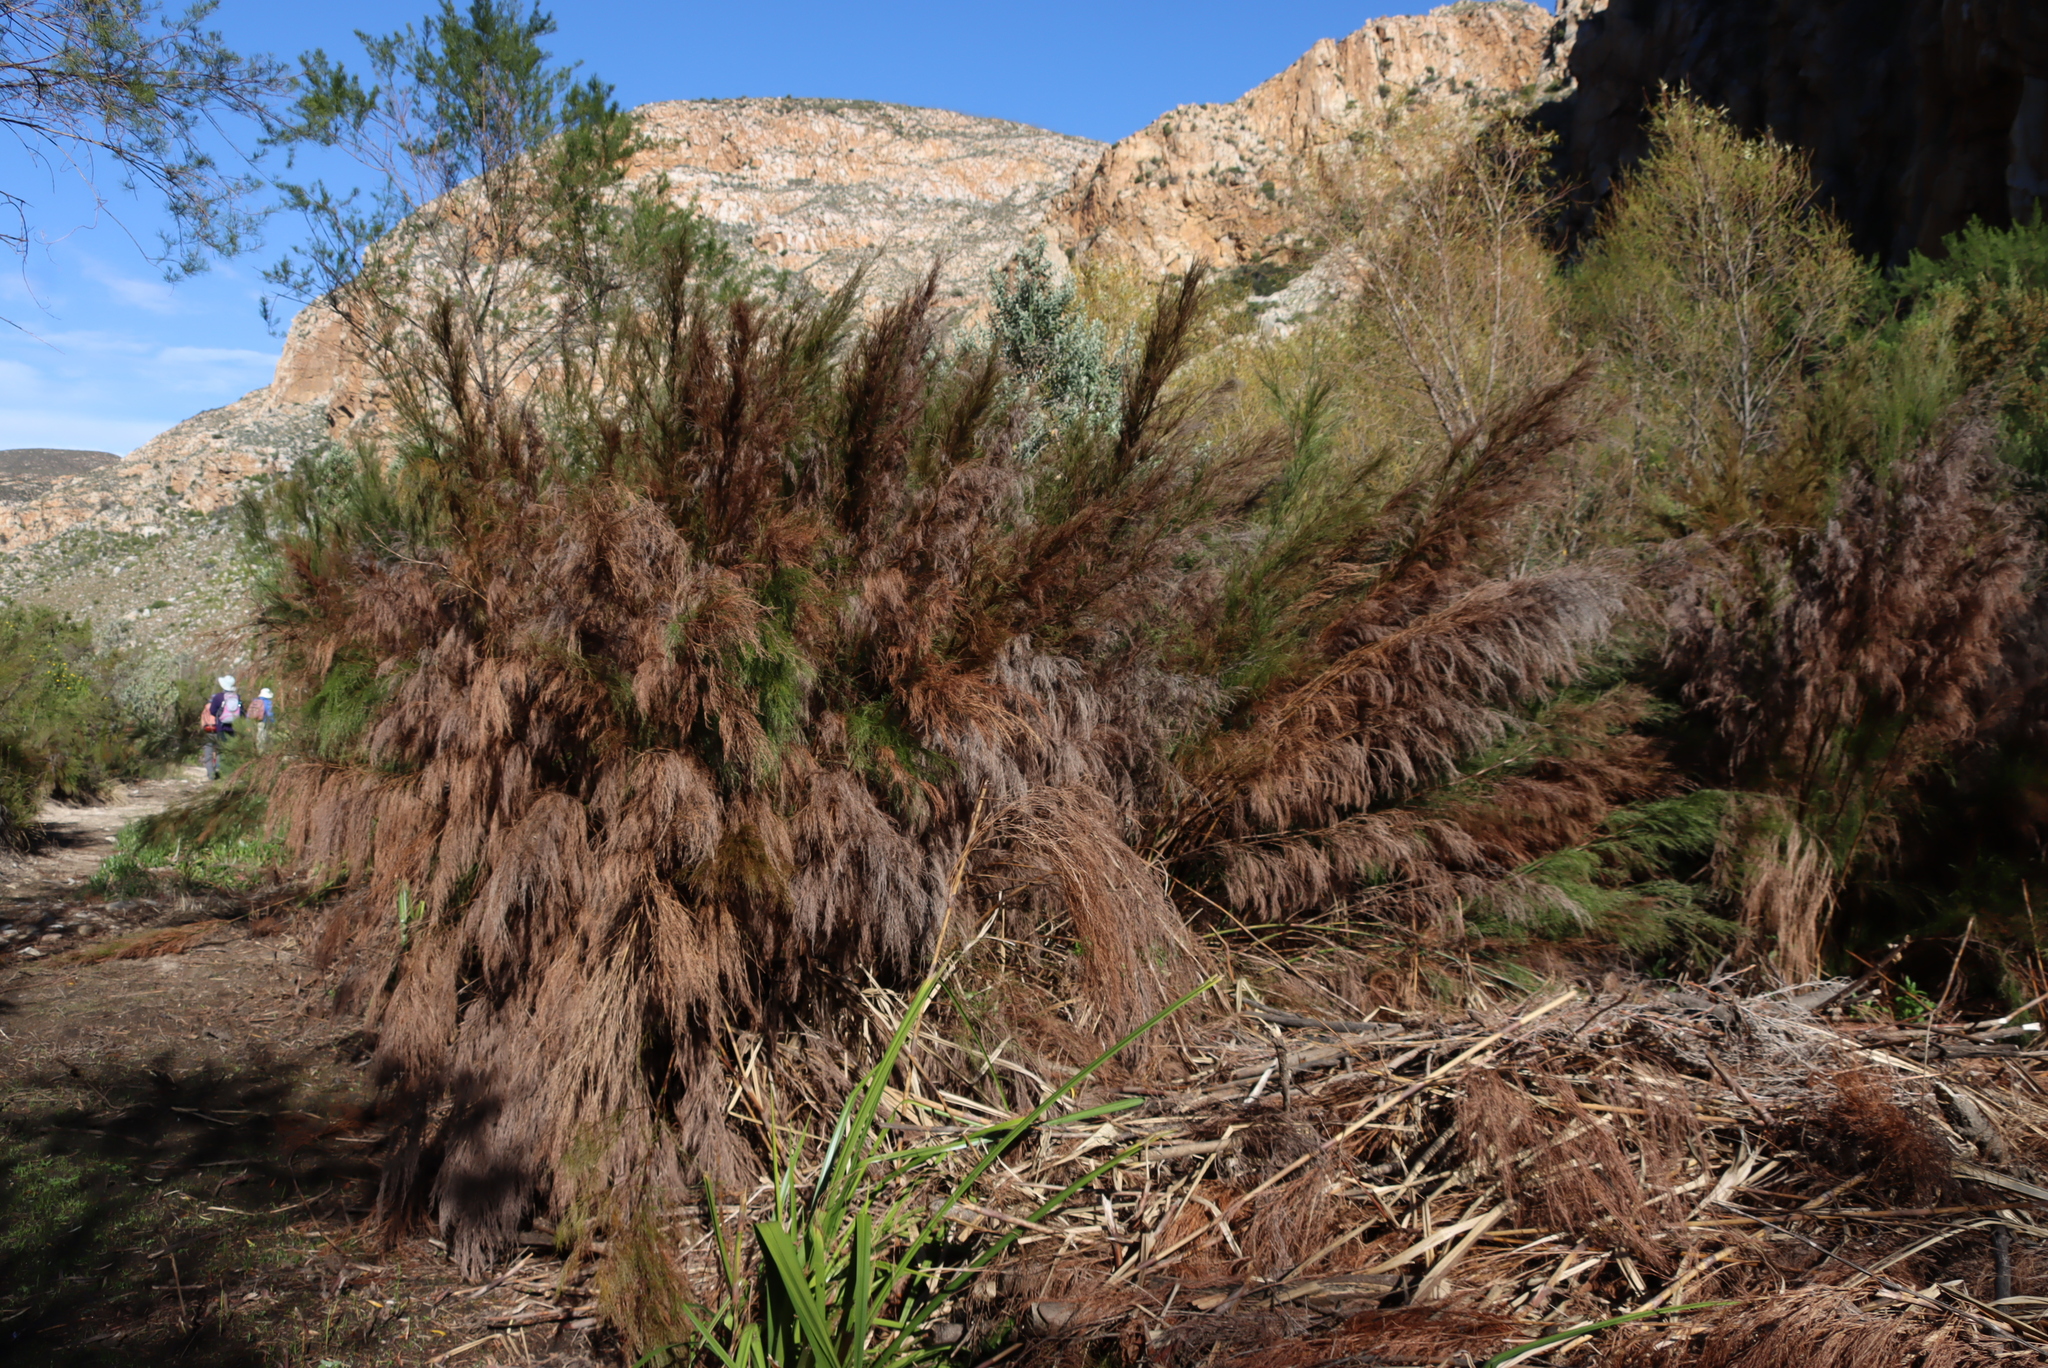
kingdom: Plantae
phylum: Tracheophyta
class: Liliopsida
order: Poales
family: Restionaceae
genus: Restio
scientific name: Restio paniculatus
